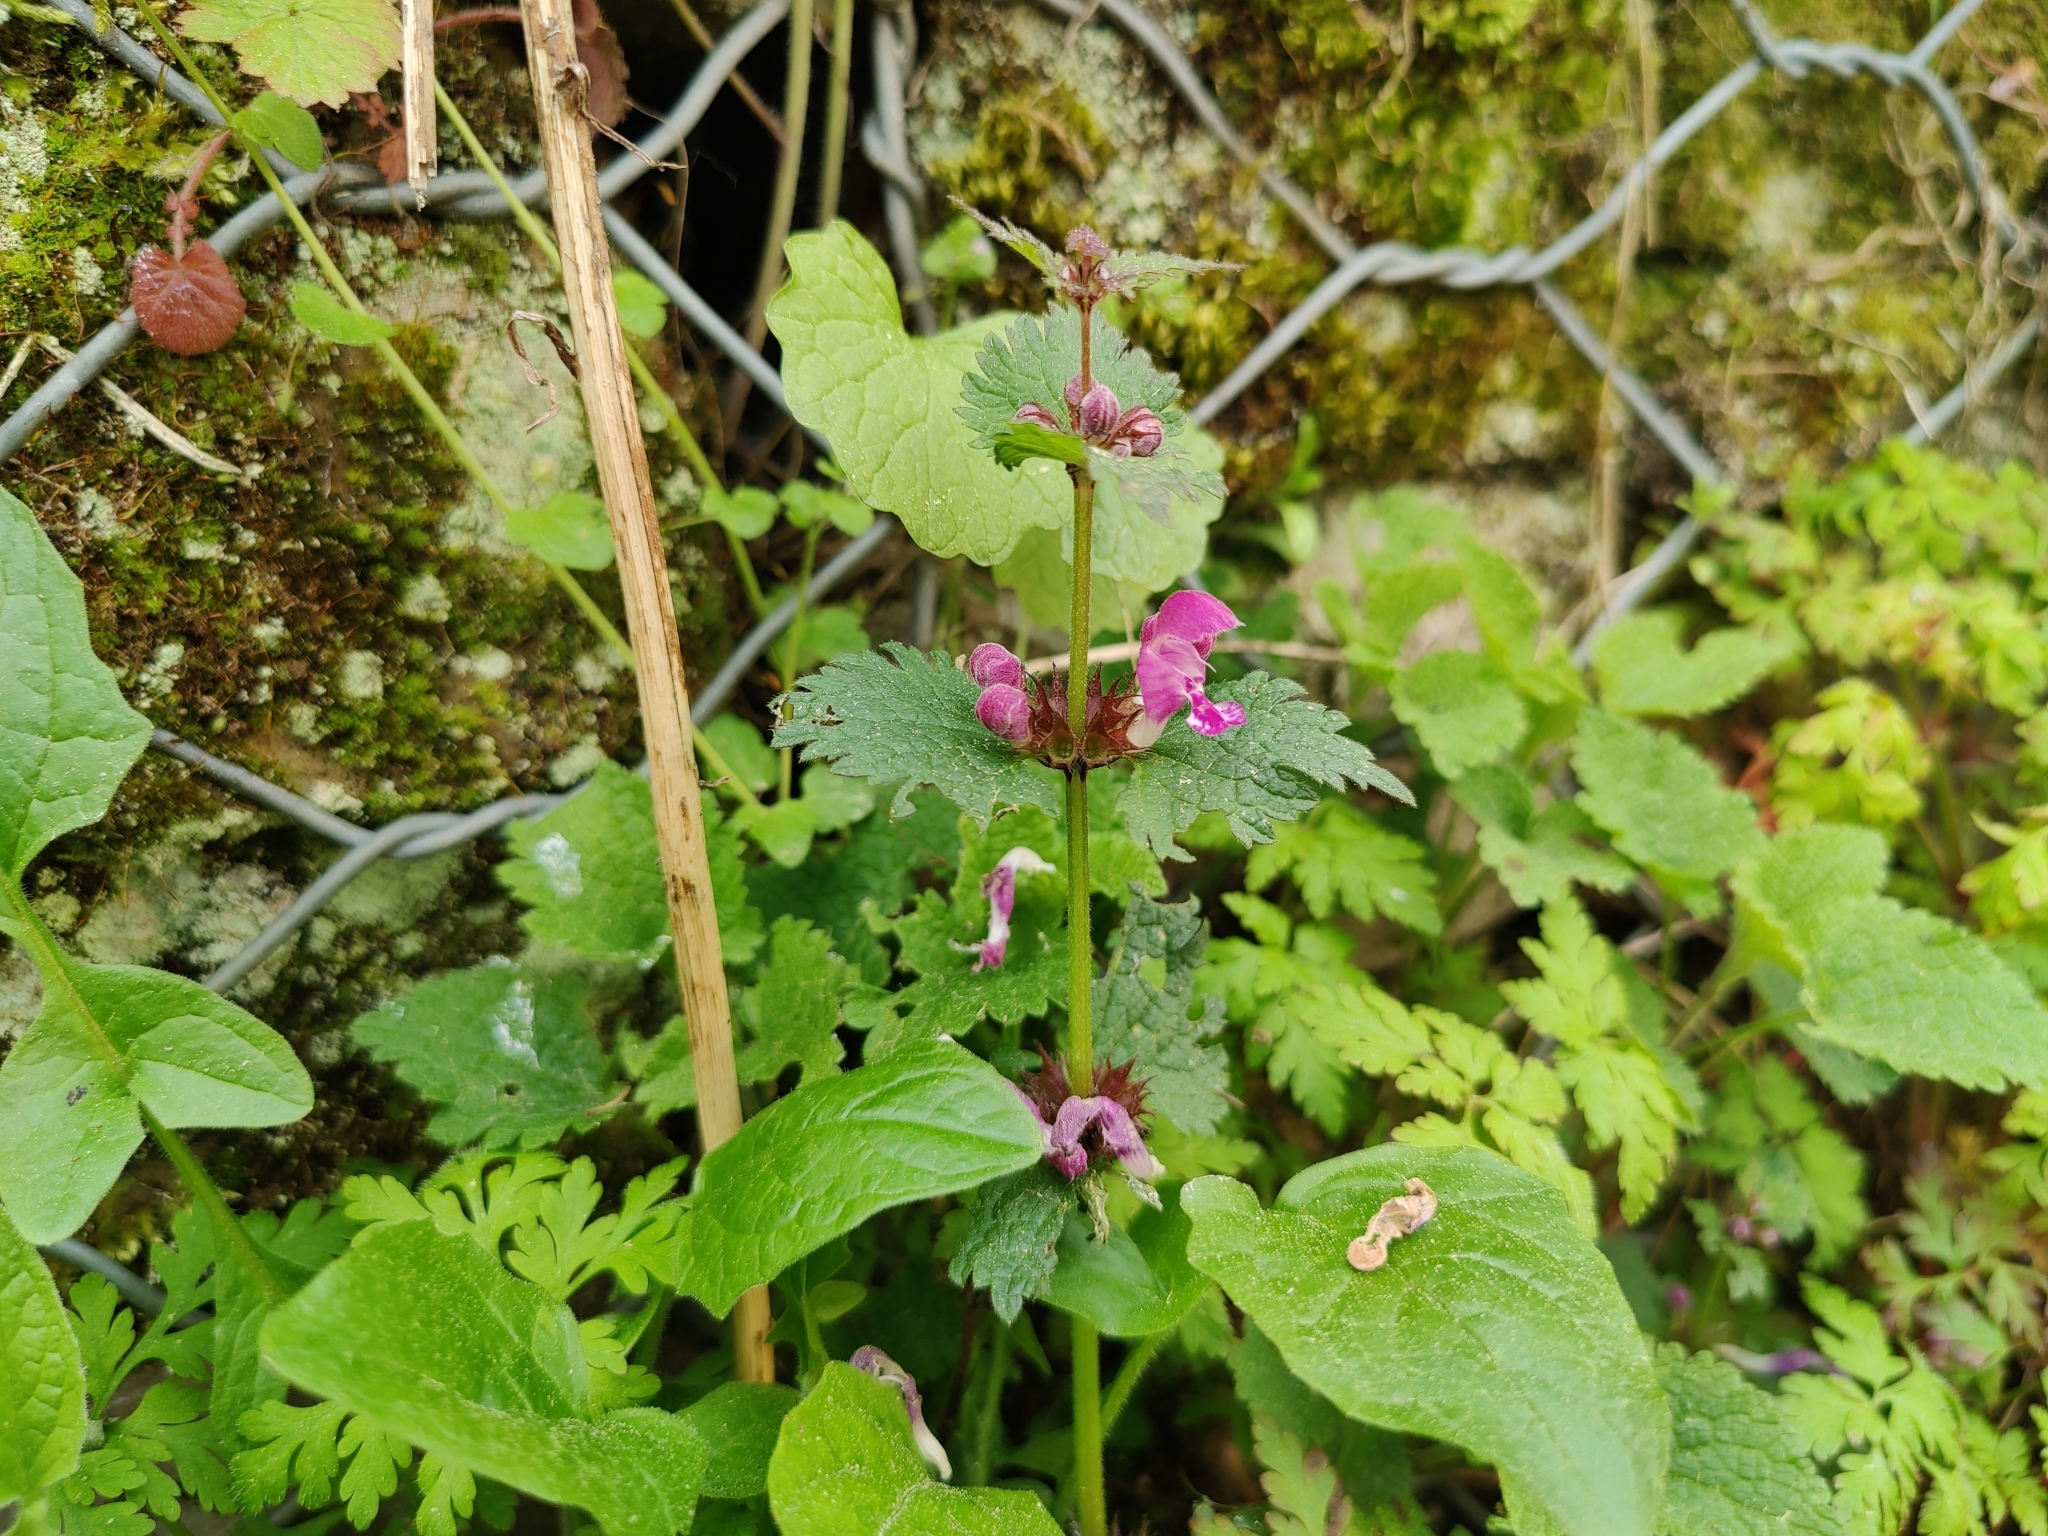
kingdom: Plantae
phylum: Tracheophyta
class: Magnoliopsida
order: Lamiales
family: Lamiaceae
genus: Lamium
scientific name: Lamium maculatum
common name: Spotted dead-nettle
